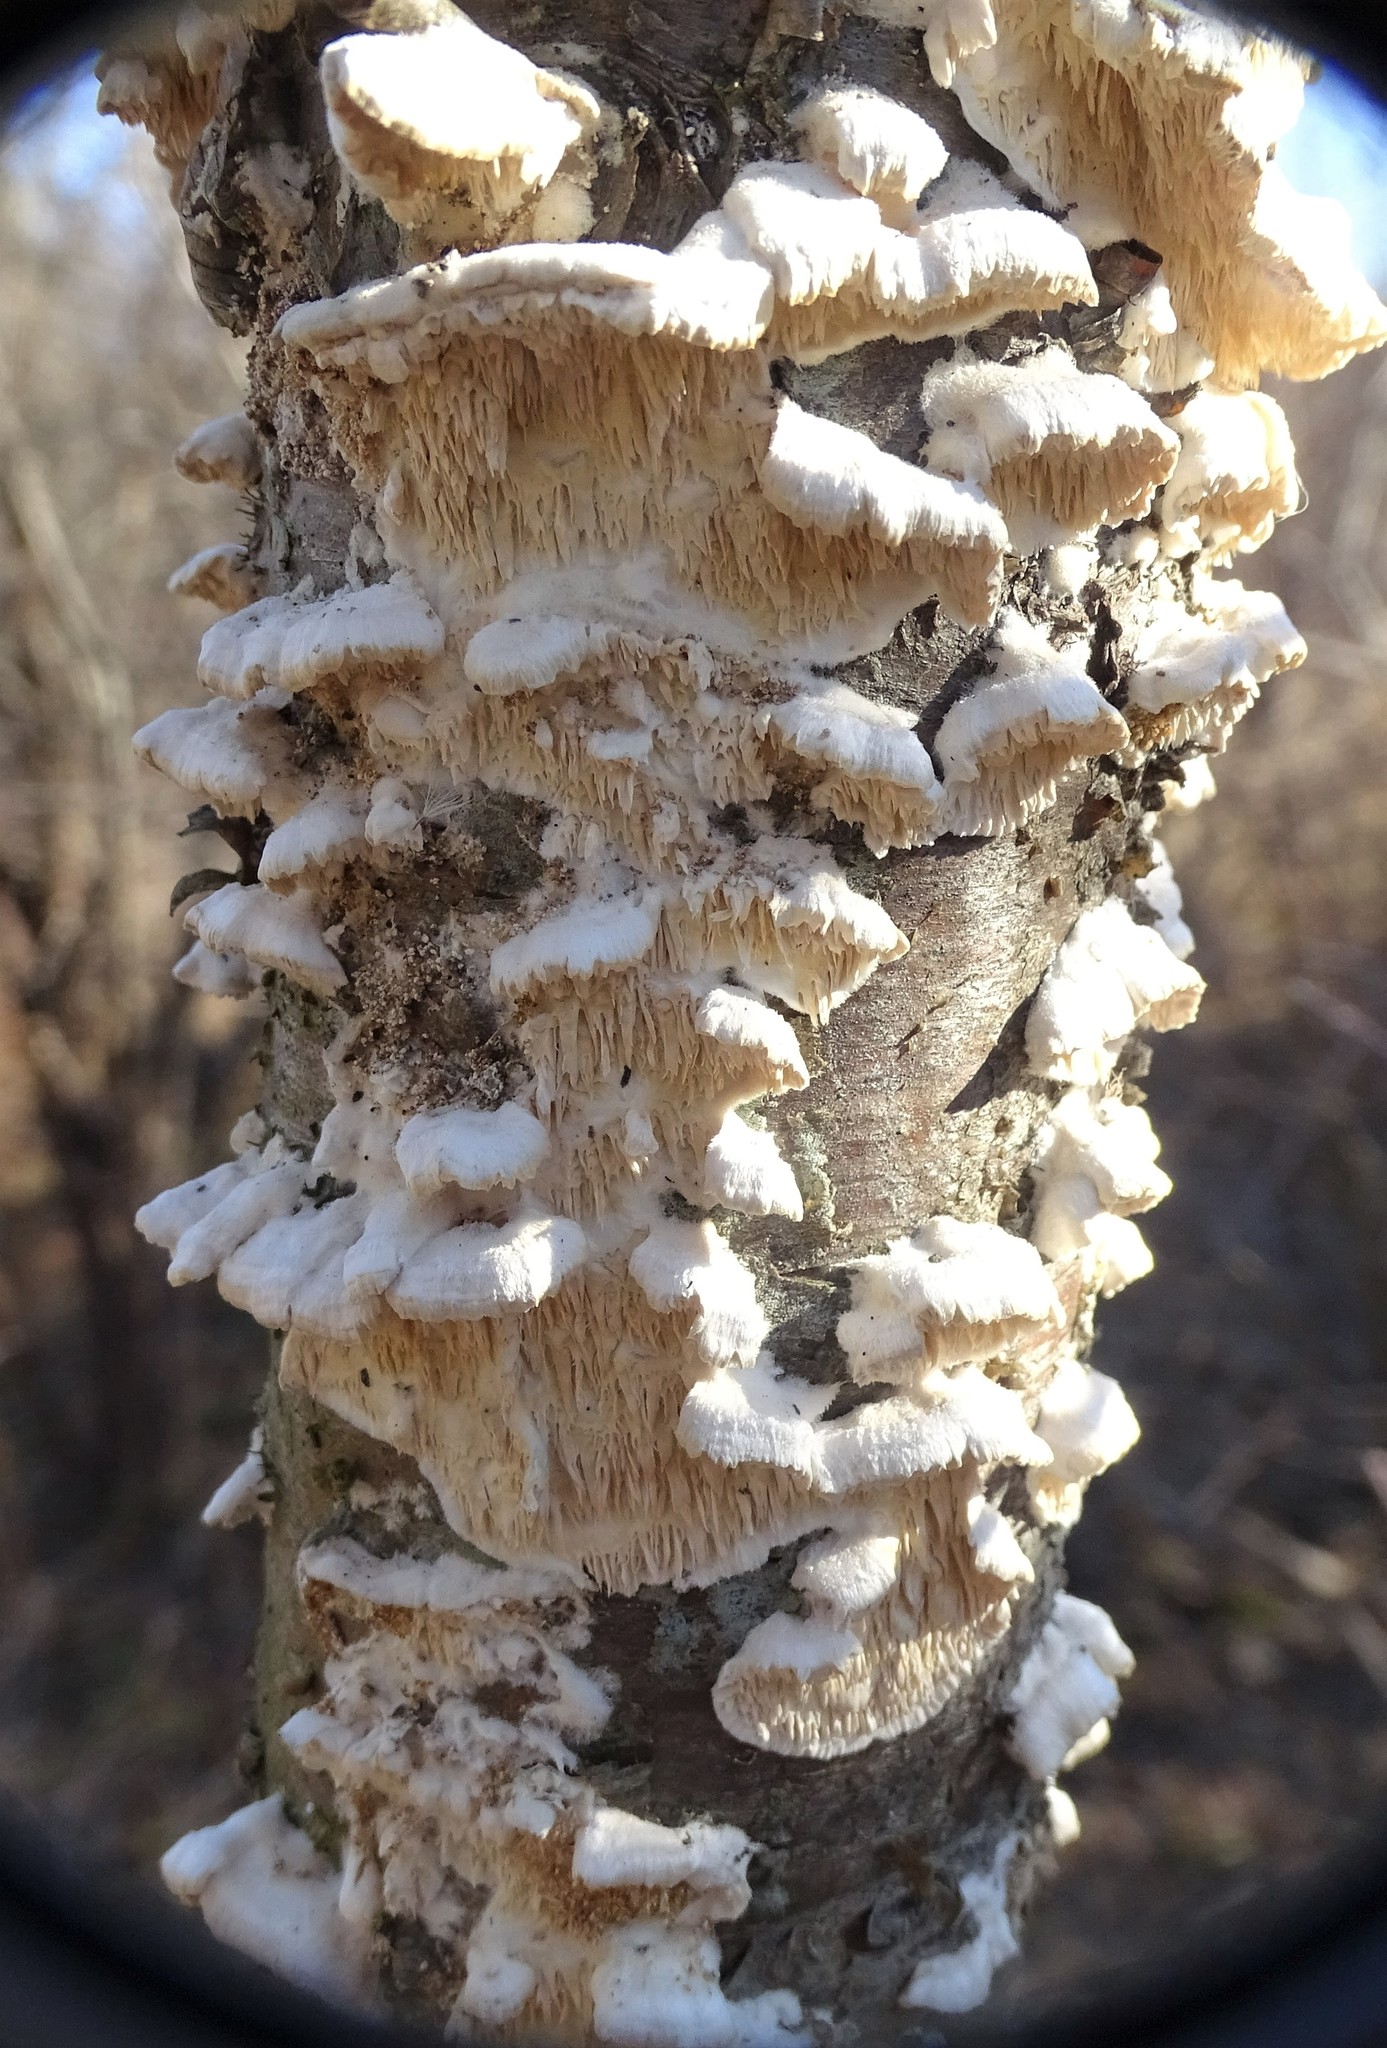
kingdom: Fungi
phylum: Basidiomycota
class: Agaricomycetes
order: Polyporales
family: Meruliaceae
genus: Irpiciporus
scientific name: Irpiciporus pachyodon
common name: Marshmallow polypore
